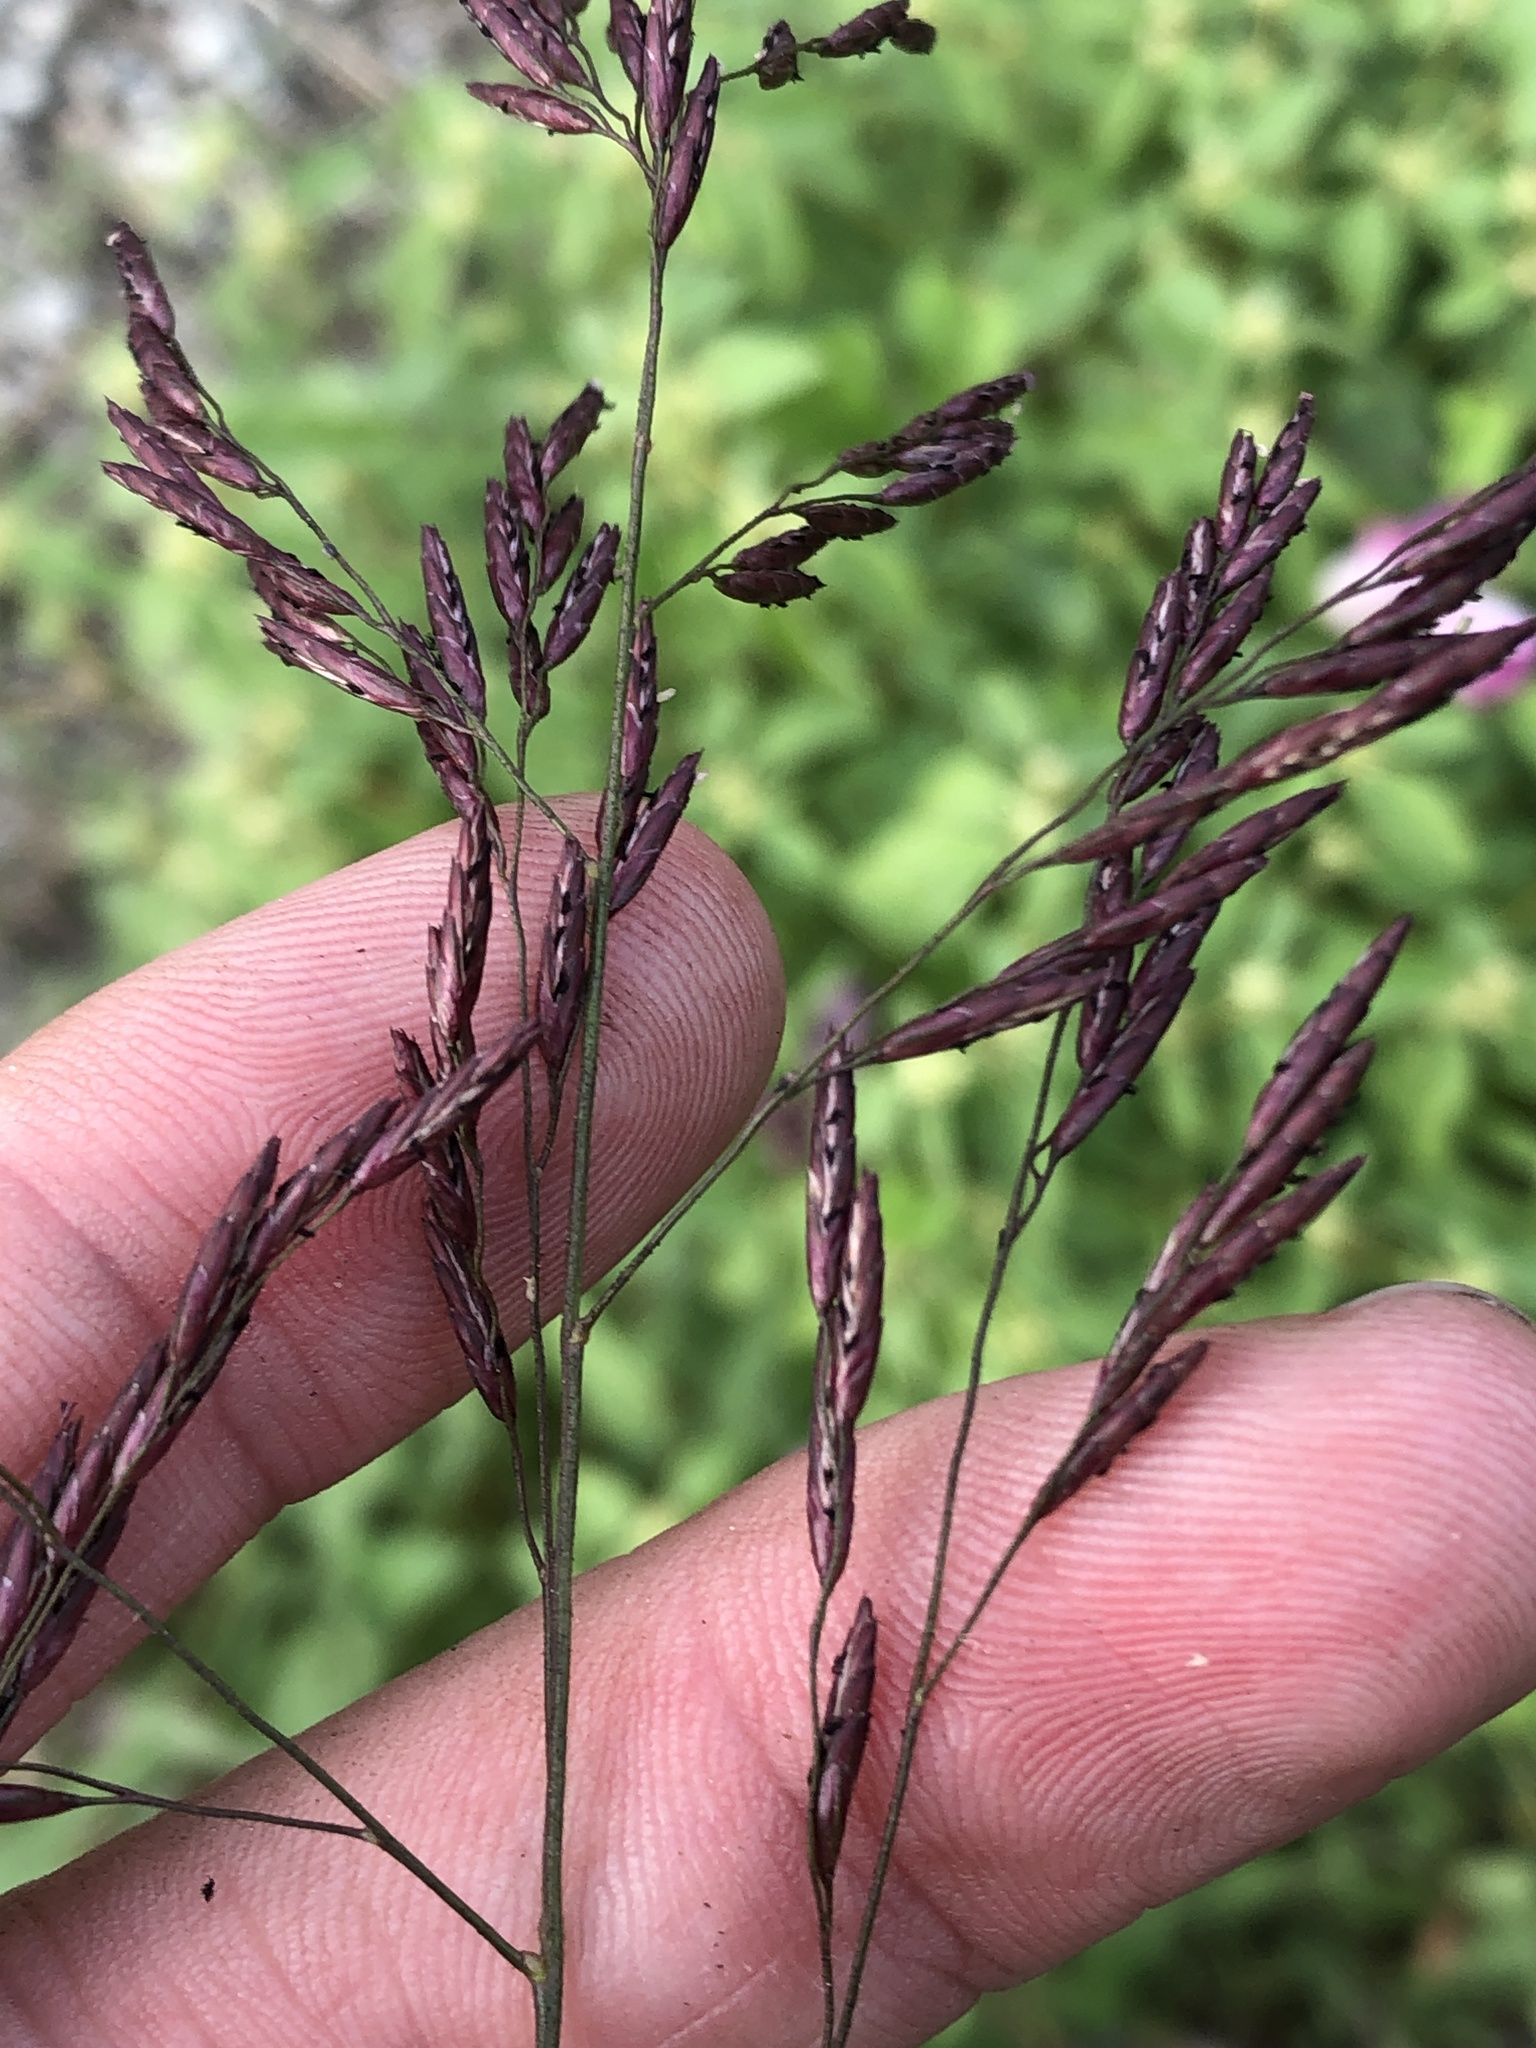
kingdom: Plantae
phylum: Tracheophyta
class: Liliopsida
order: Poales
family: Poaceae
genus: Tridens
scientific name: Tridens flavus
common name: Purpletop
